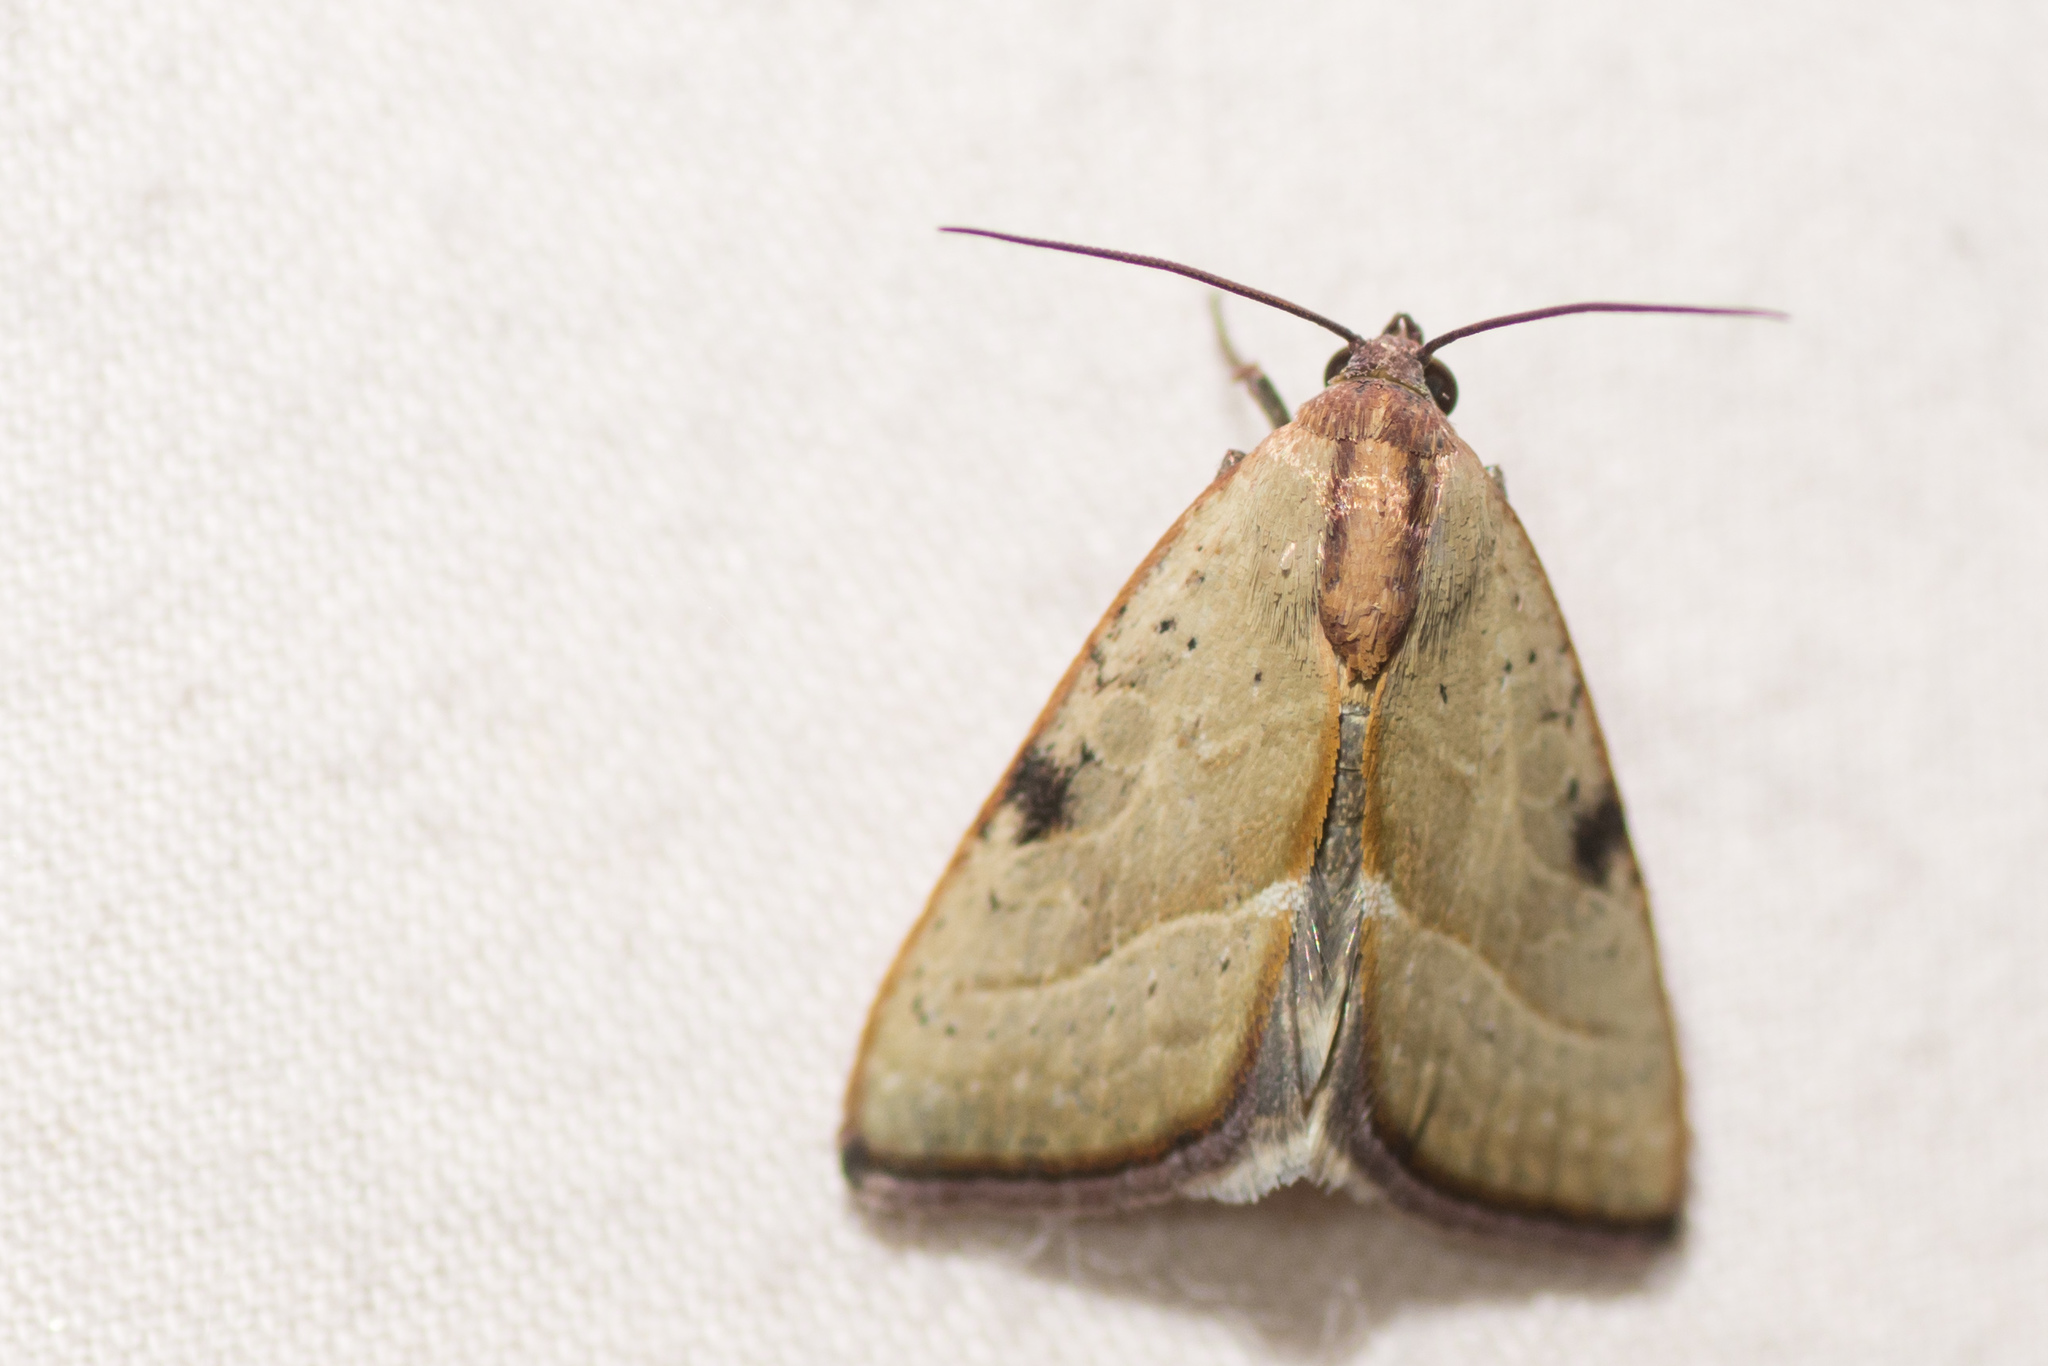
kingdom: Animalia
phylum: Arthropoda
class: Insecta
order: Lepidoptera
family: Noctuidae
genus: Galgula
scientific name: Galgula partita
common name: Wedgeling
